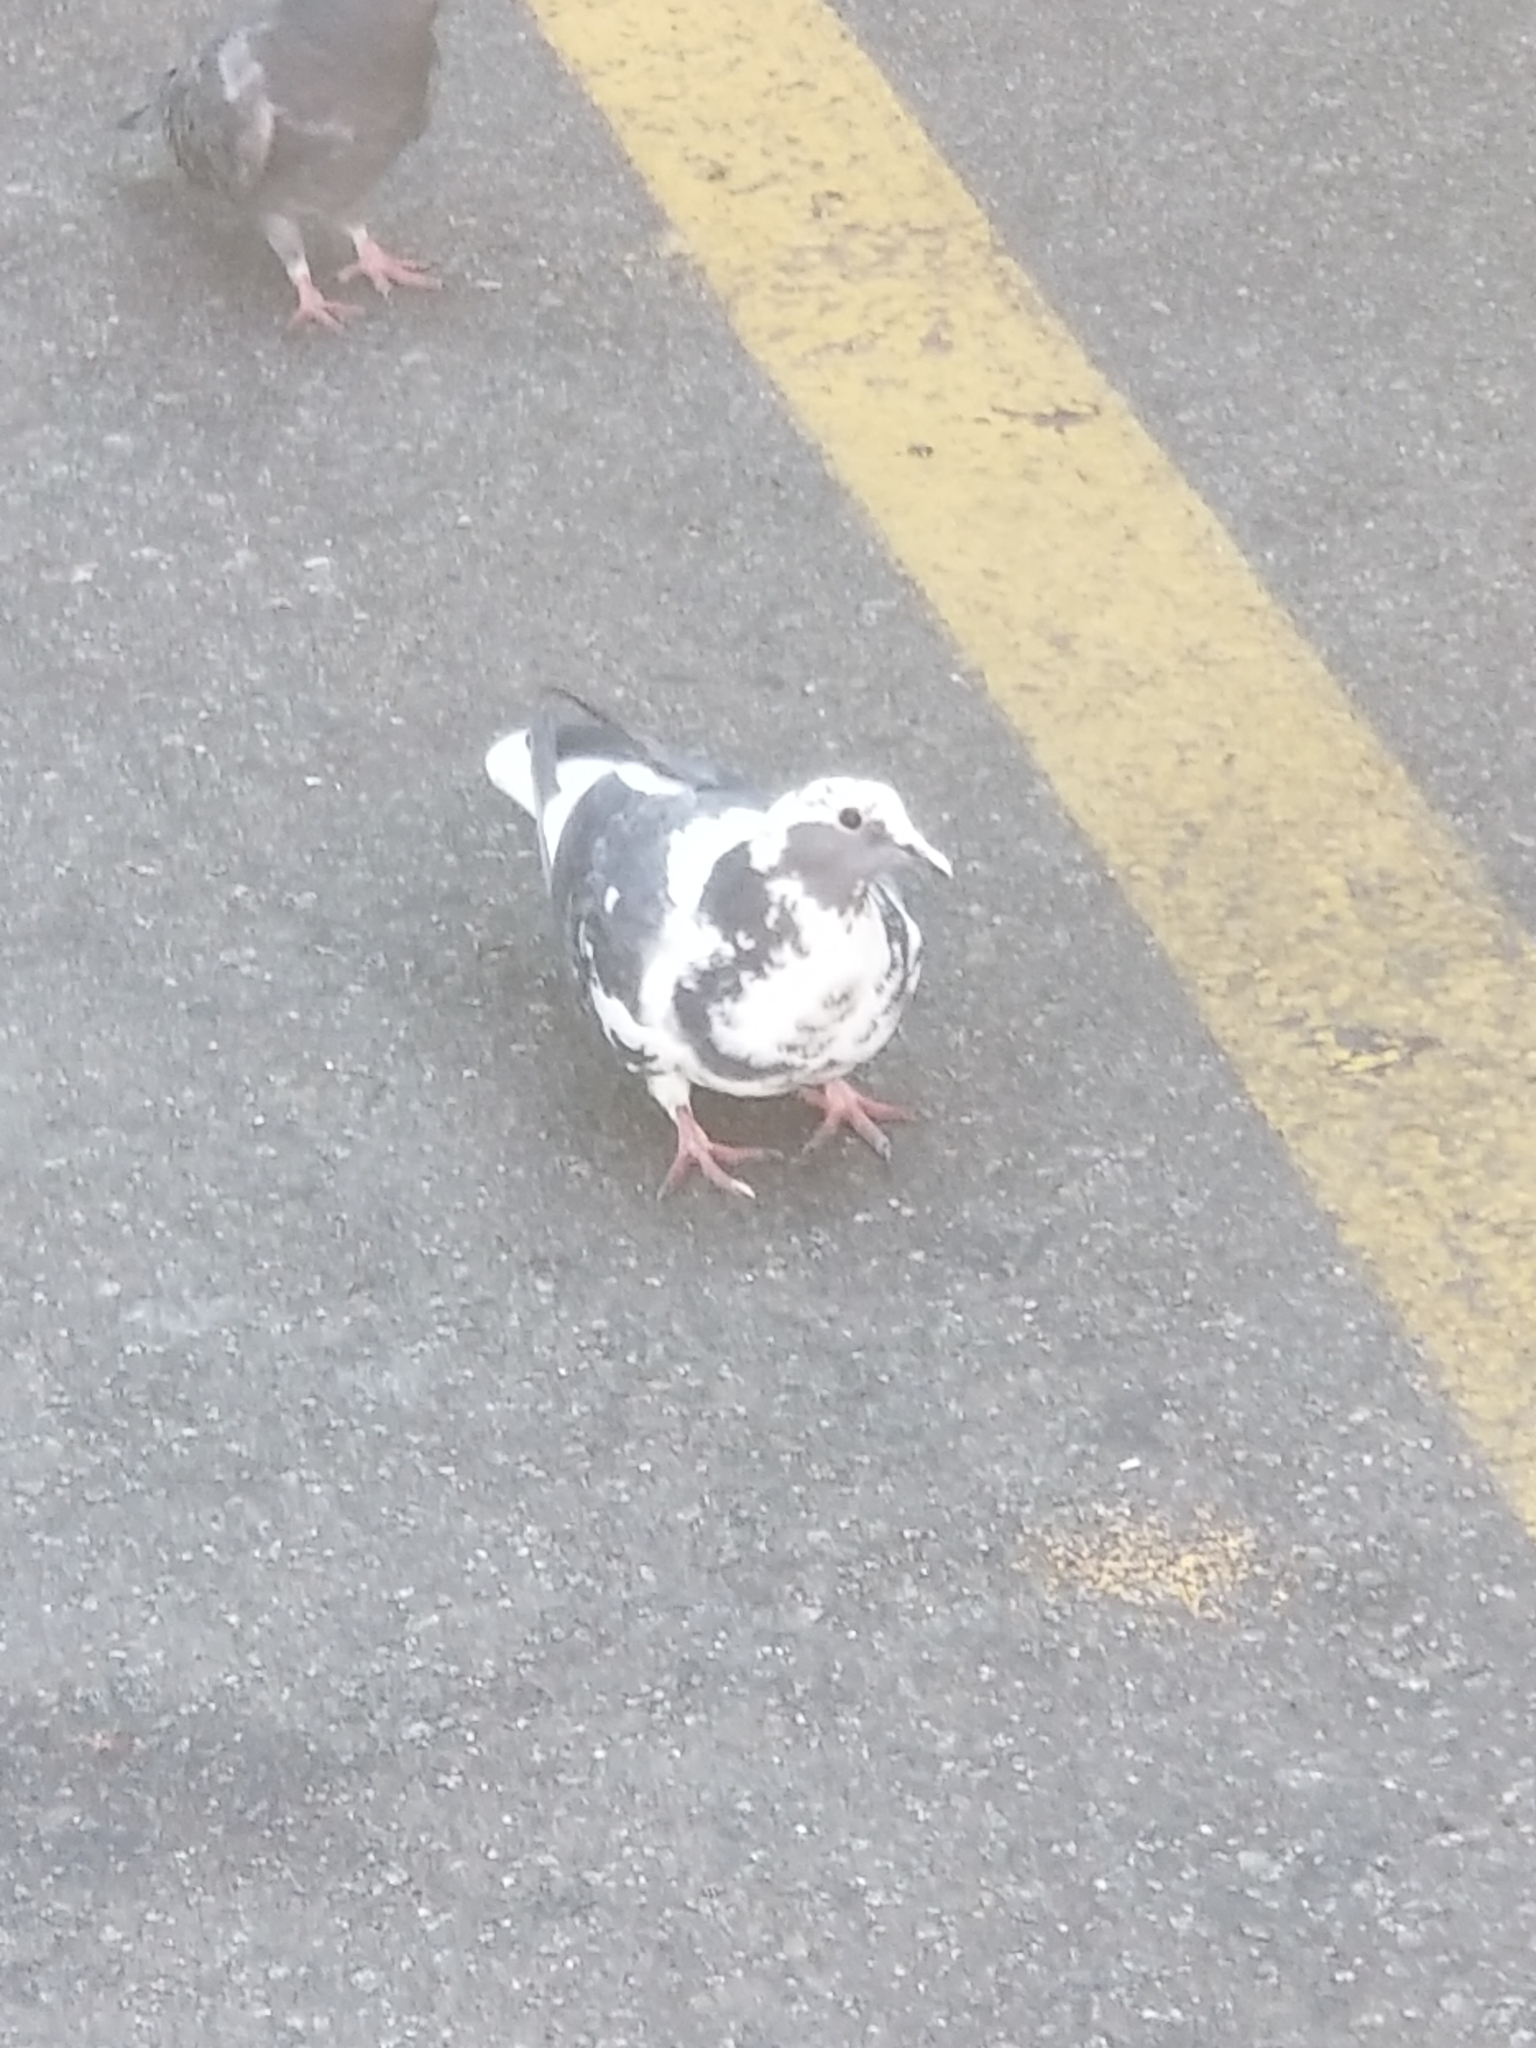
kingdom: Animalia
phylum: Chordata
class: Aves
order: Columbiformes
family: Columbidae
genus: Columba
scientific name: Columba livia
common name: Rock pigeon
